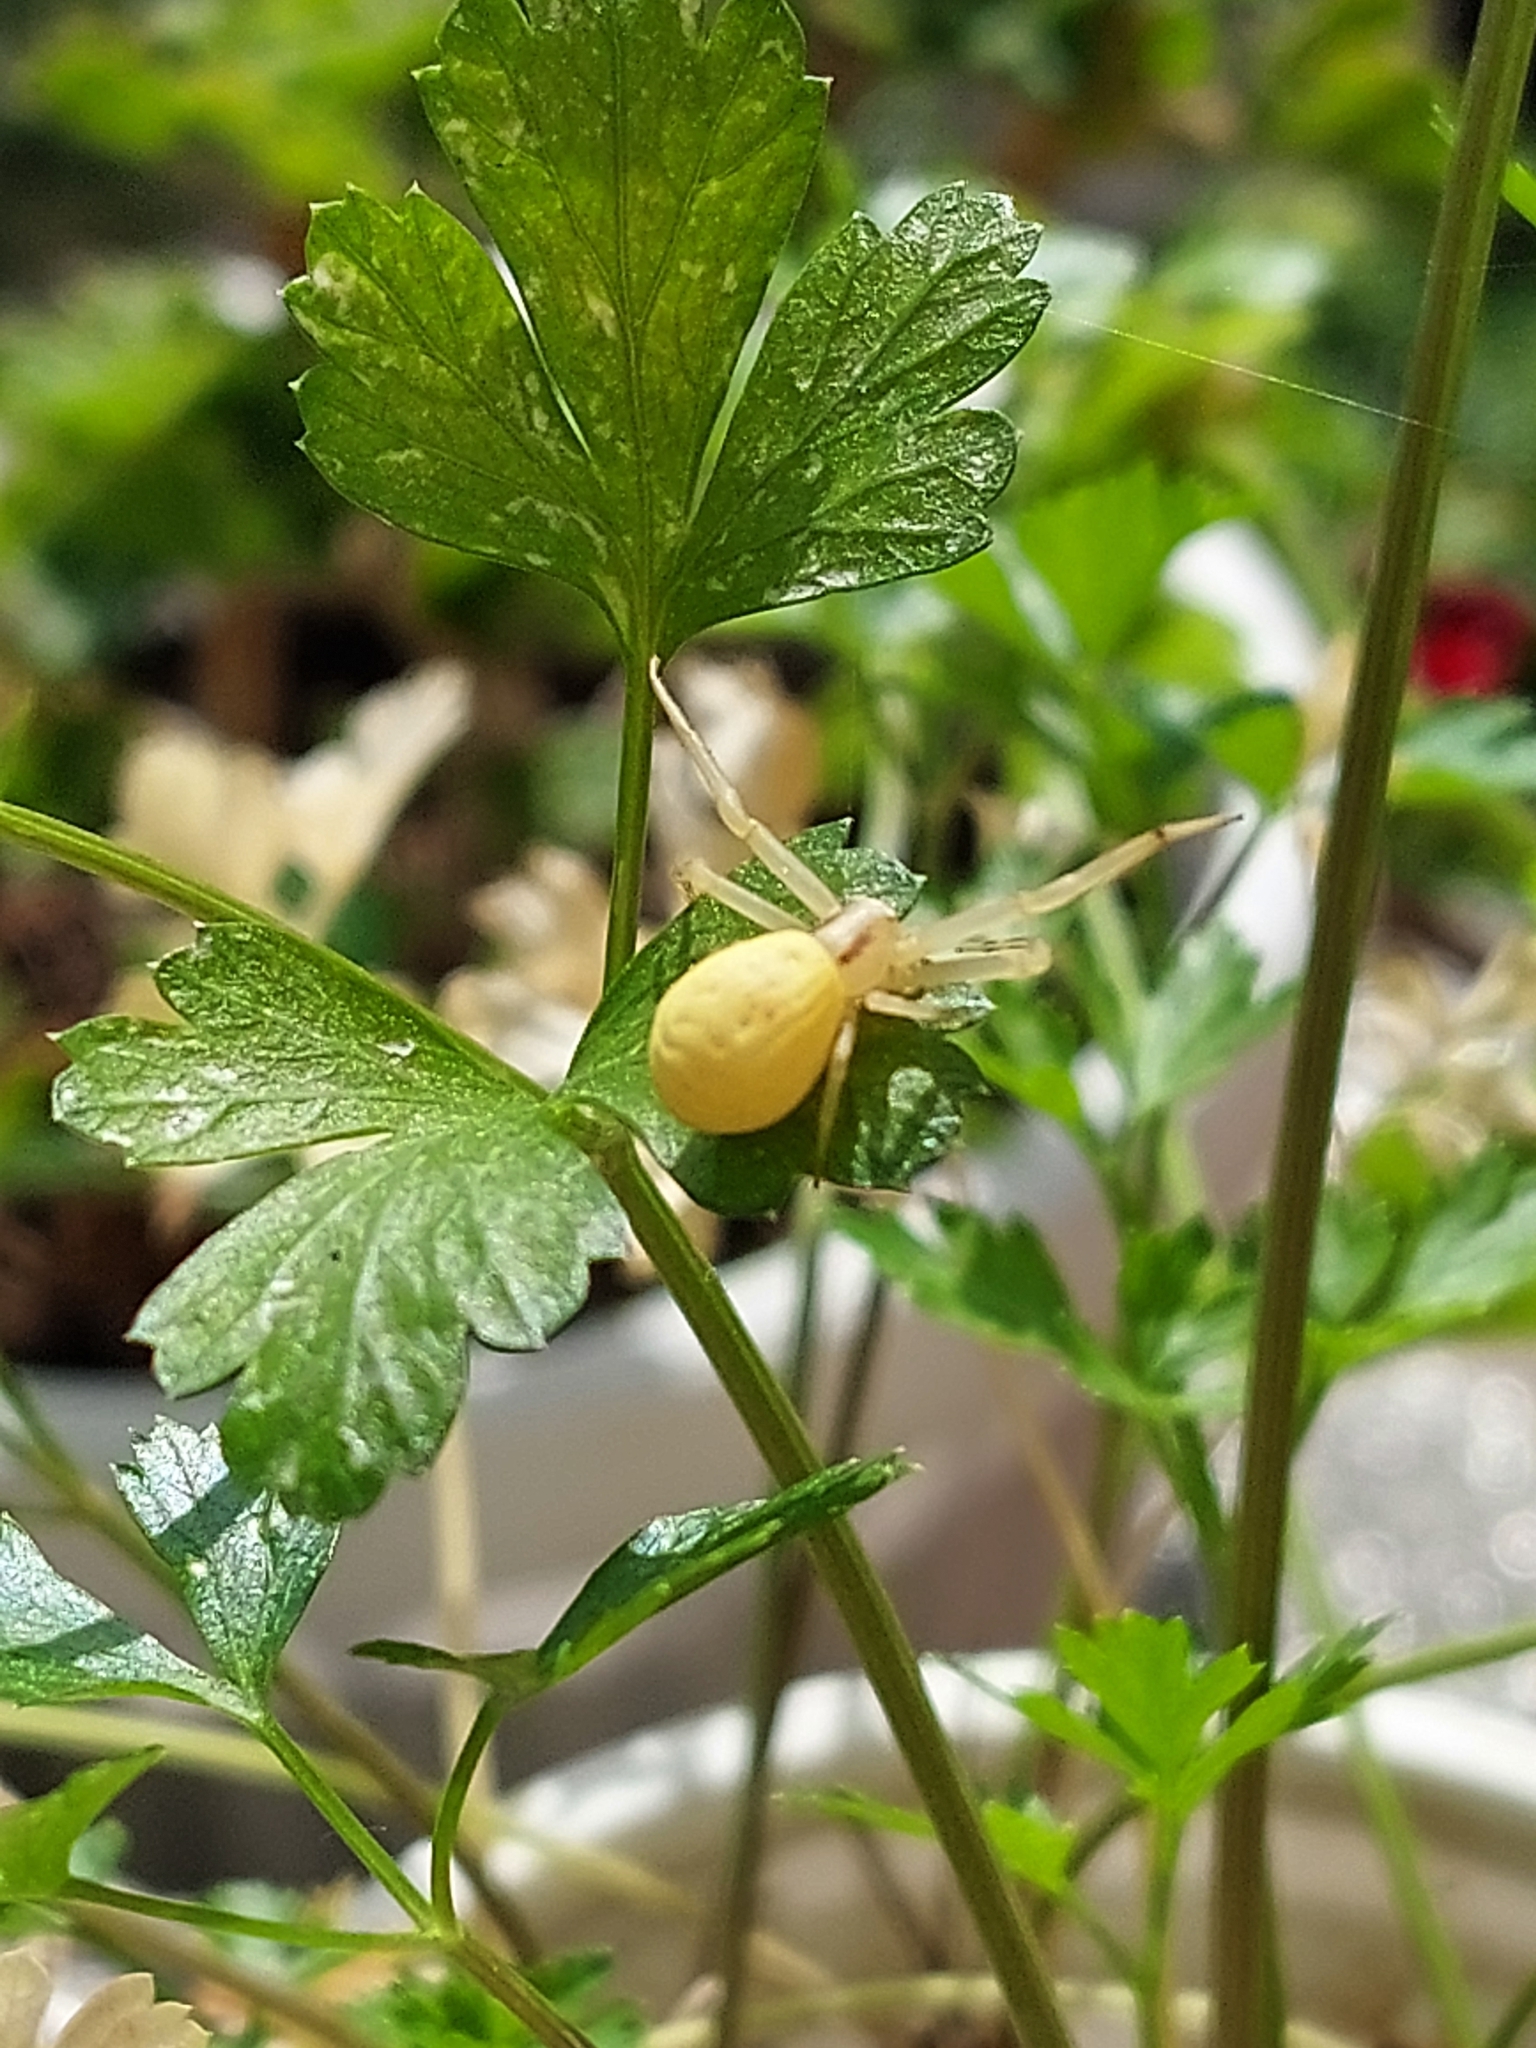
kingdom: Animalia
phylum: Arthropoda
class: Arachnida
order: Araneae
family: Thomisidae
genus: Runcinia
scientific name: Runcinia grammica
